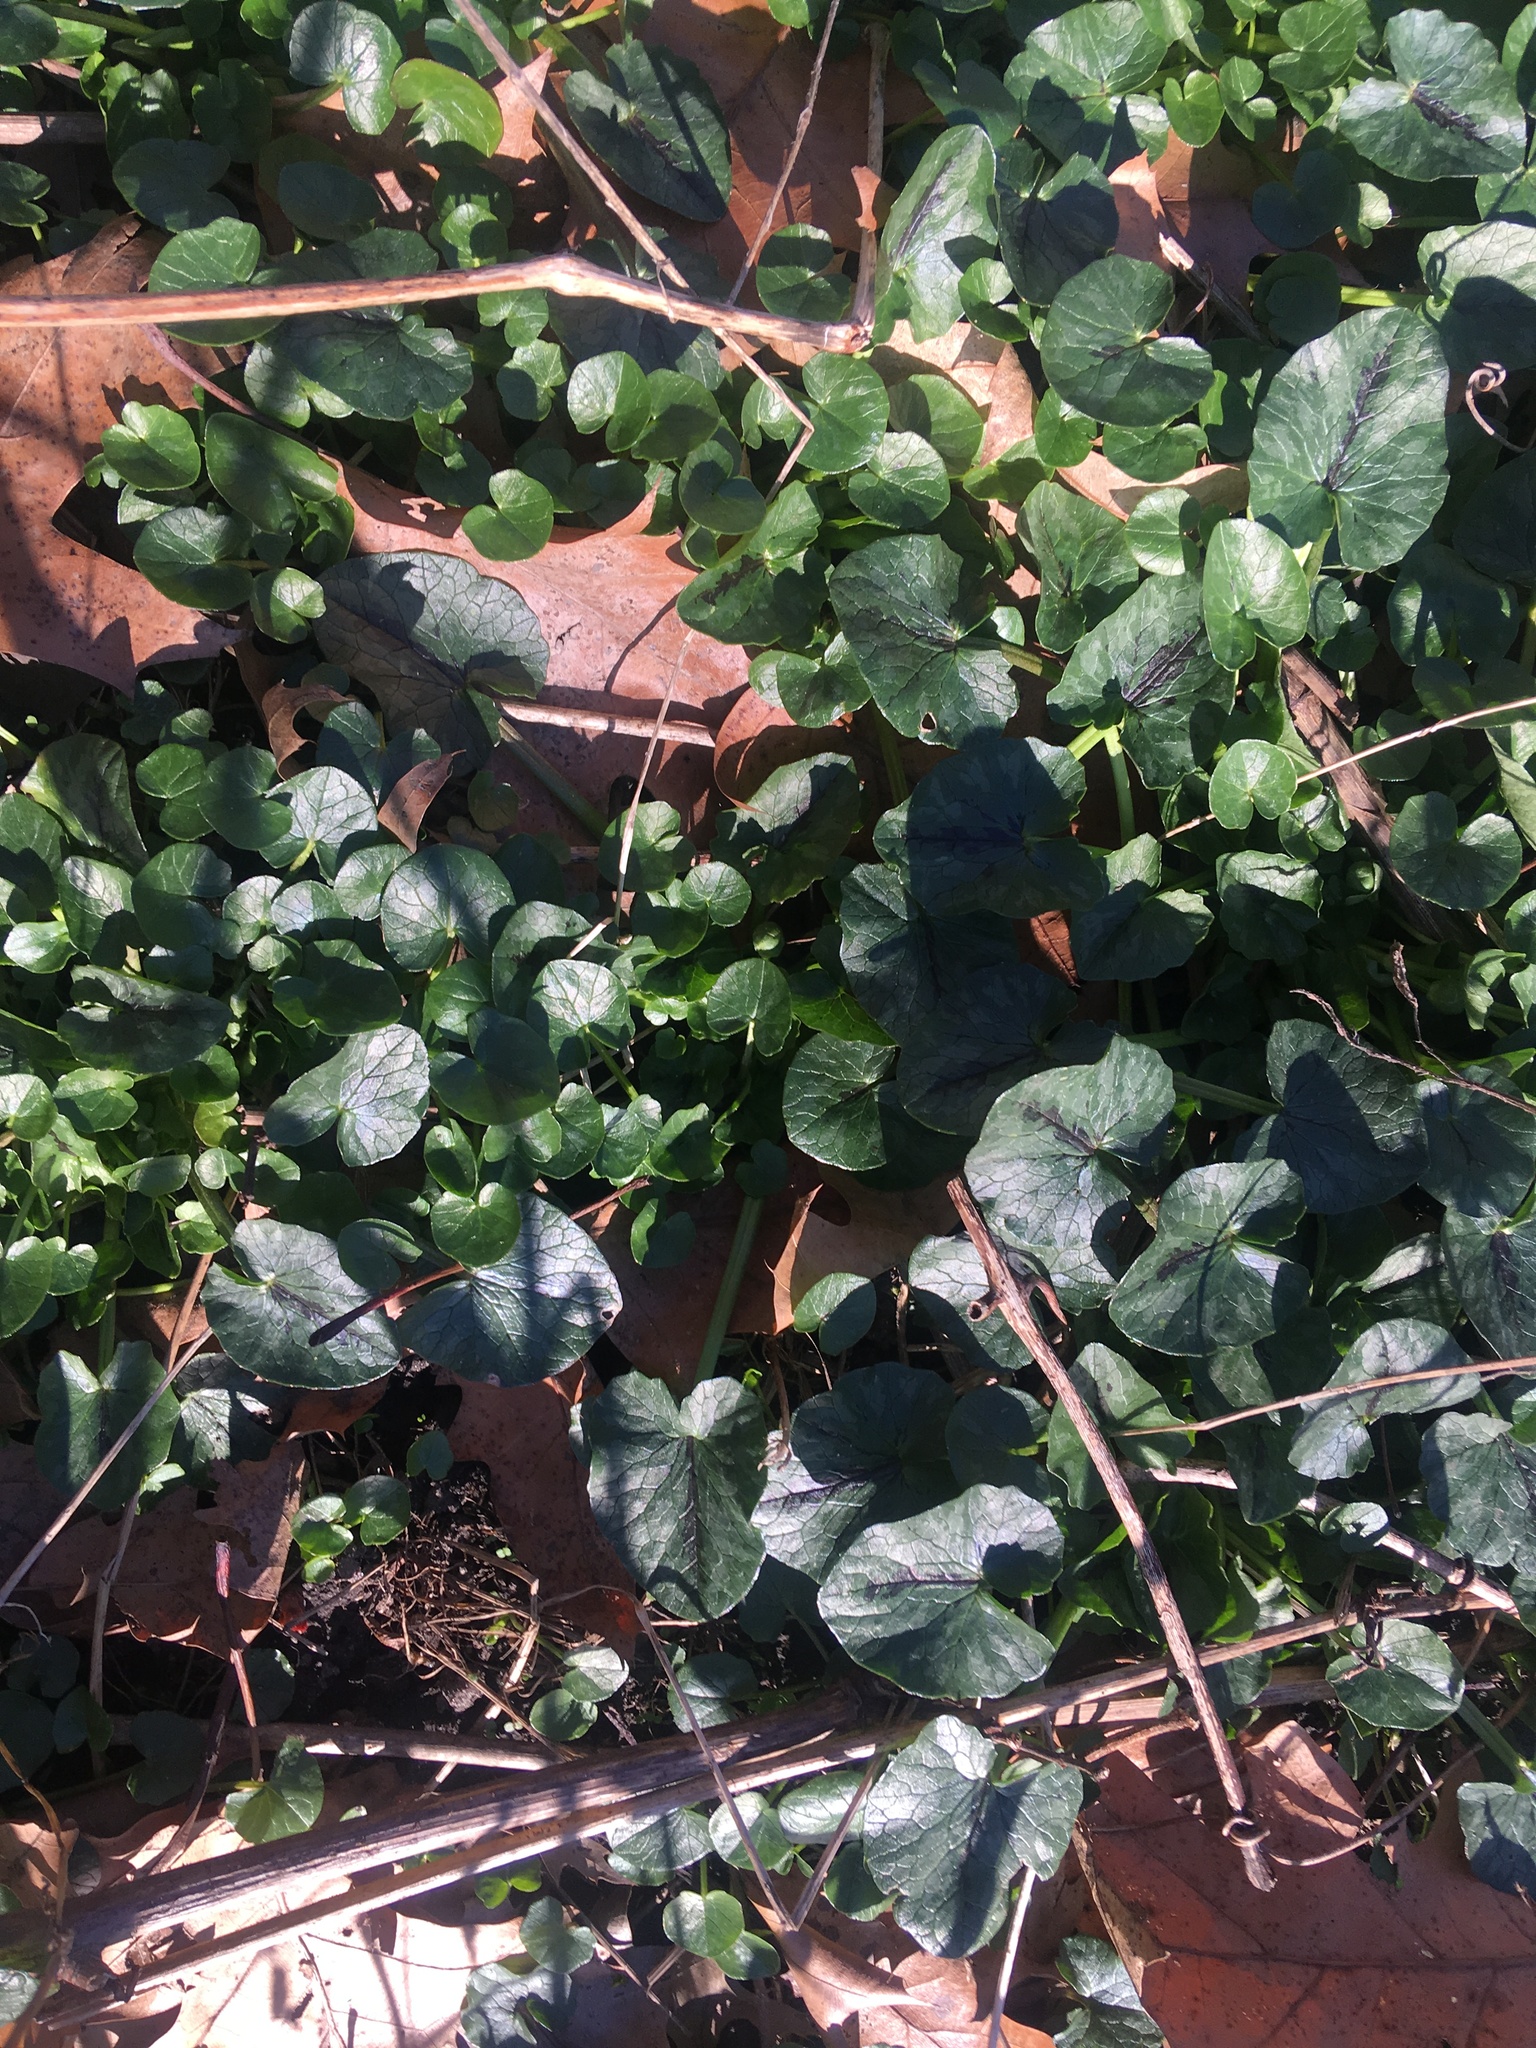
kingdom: Plantae
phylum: Tracheophyta
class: Magnoliopsida
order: Ranunculales
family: Ranunculaceae
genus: Ficaria
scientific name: Ficaria verna
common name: Lesser celandine
